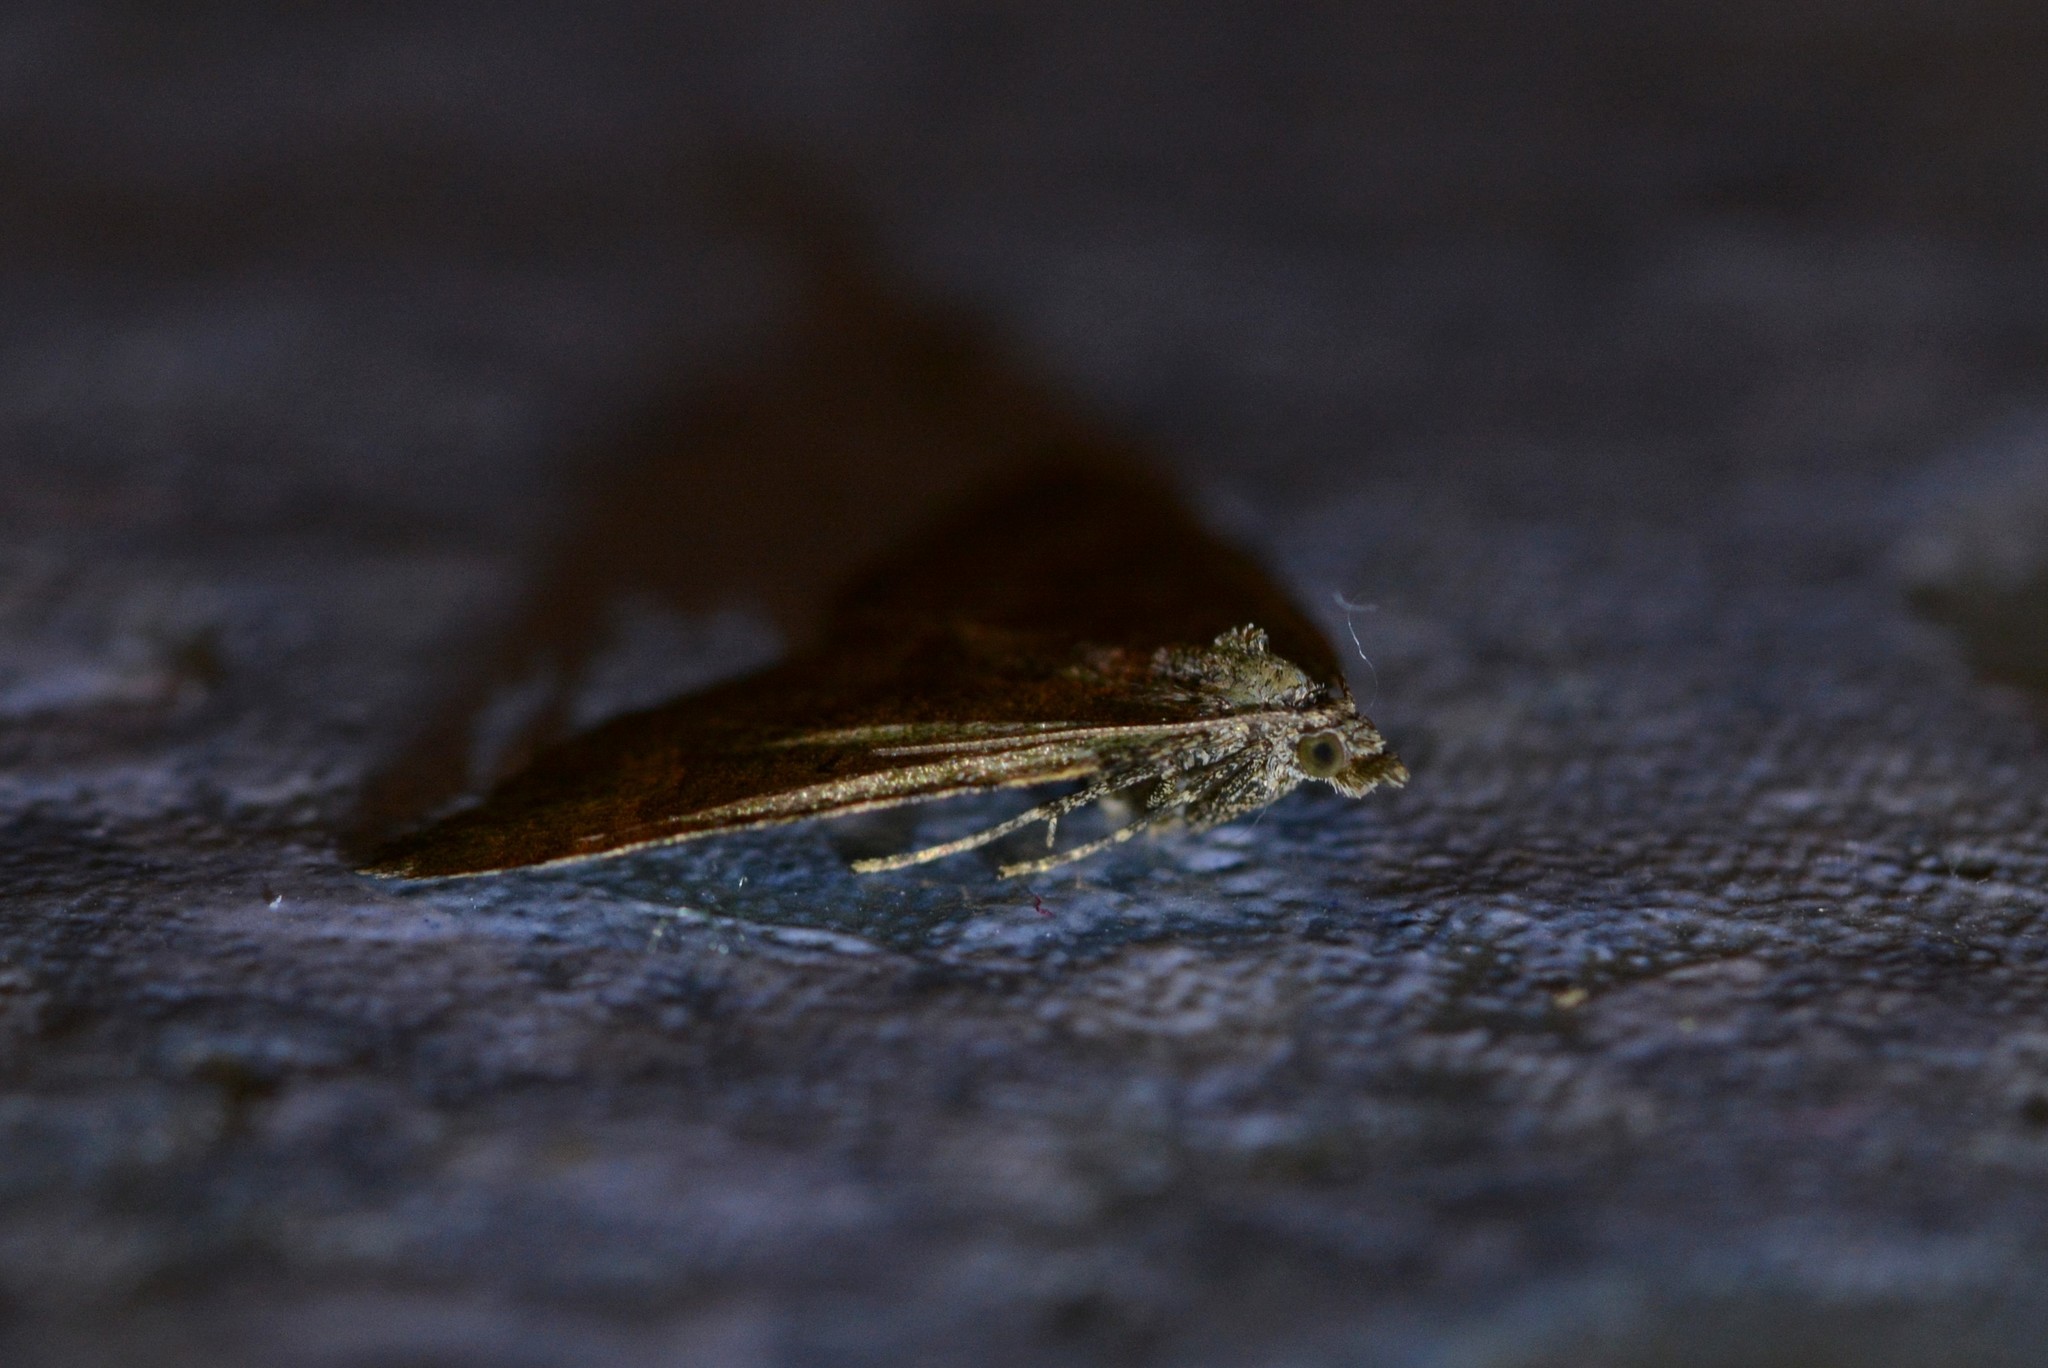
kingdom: Animalia
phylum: Arthropoda
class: Insecta
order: Lepidoptera
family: Geometridae
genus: Epyaxa
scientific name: Epyaxa rosearia
